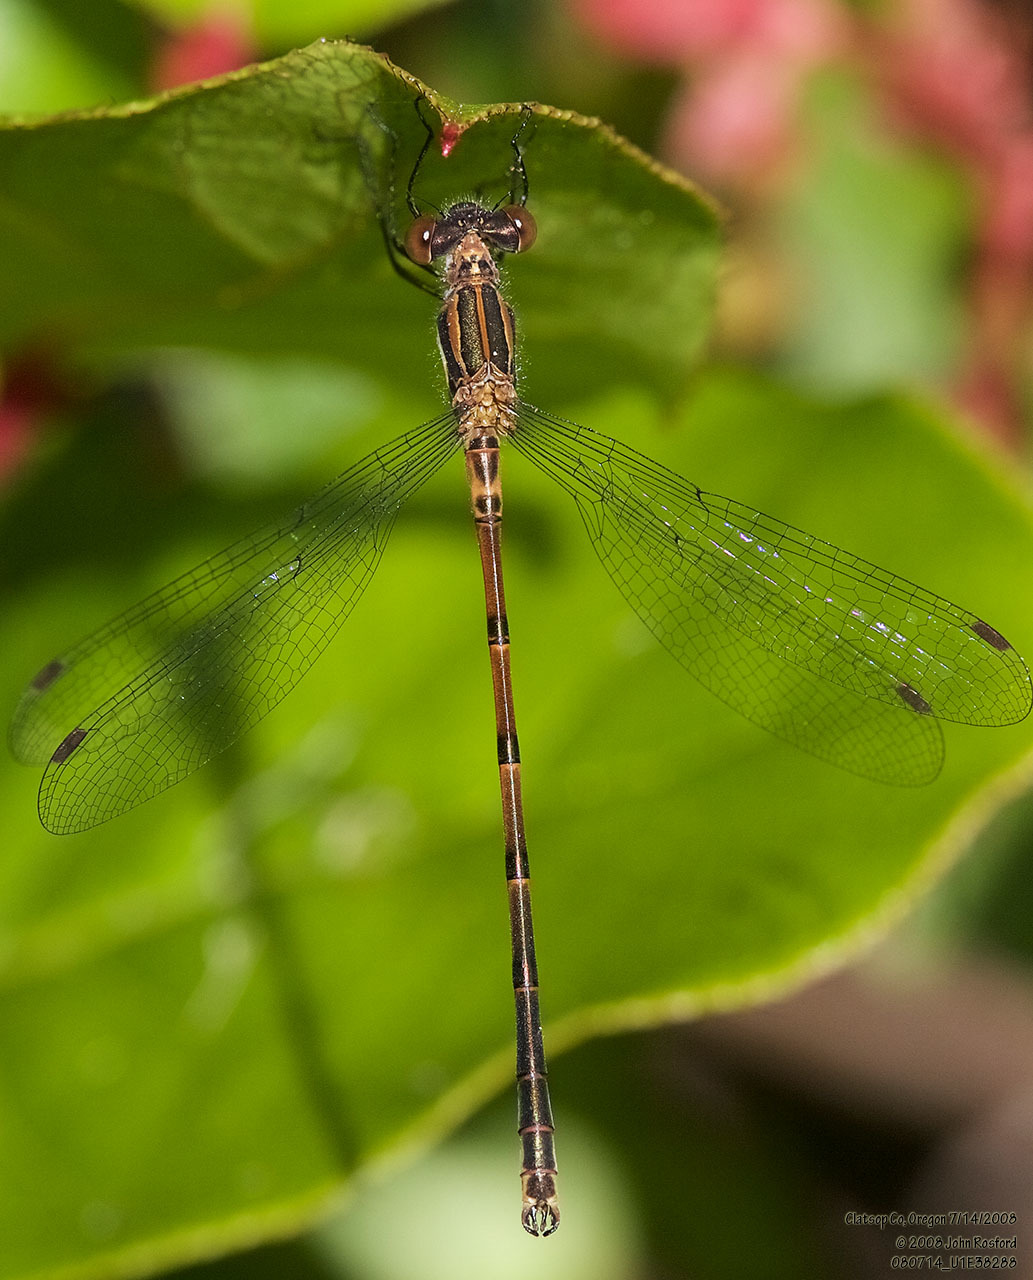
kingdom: Animalia
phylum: Arthropoda
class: Insecta
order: Odonata
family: Lestidae
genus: Lestes
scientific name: Lestes disjunctus
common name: Northern spreadwing
